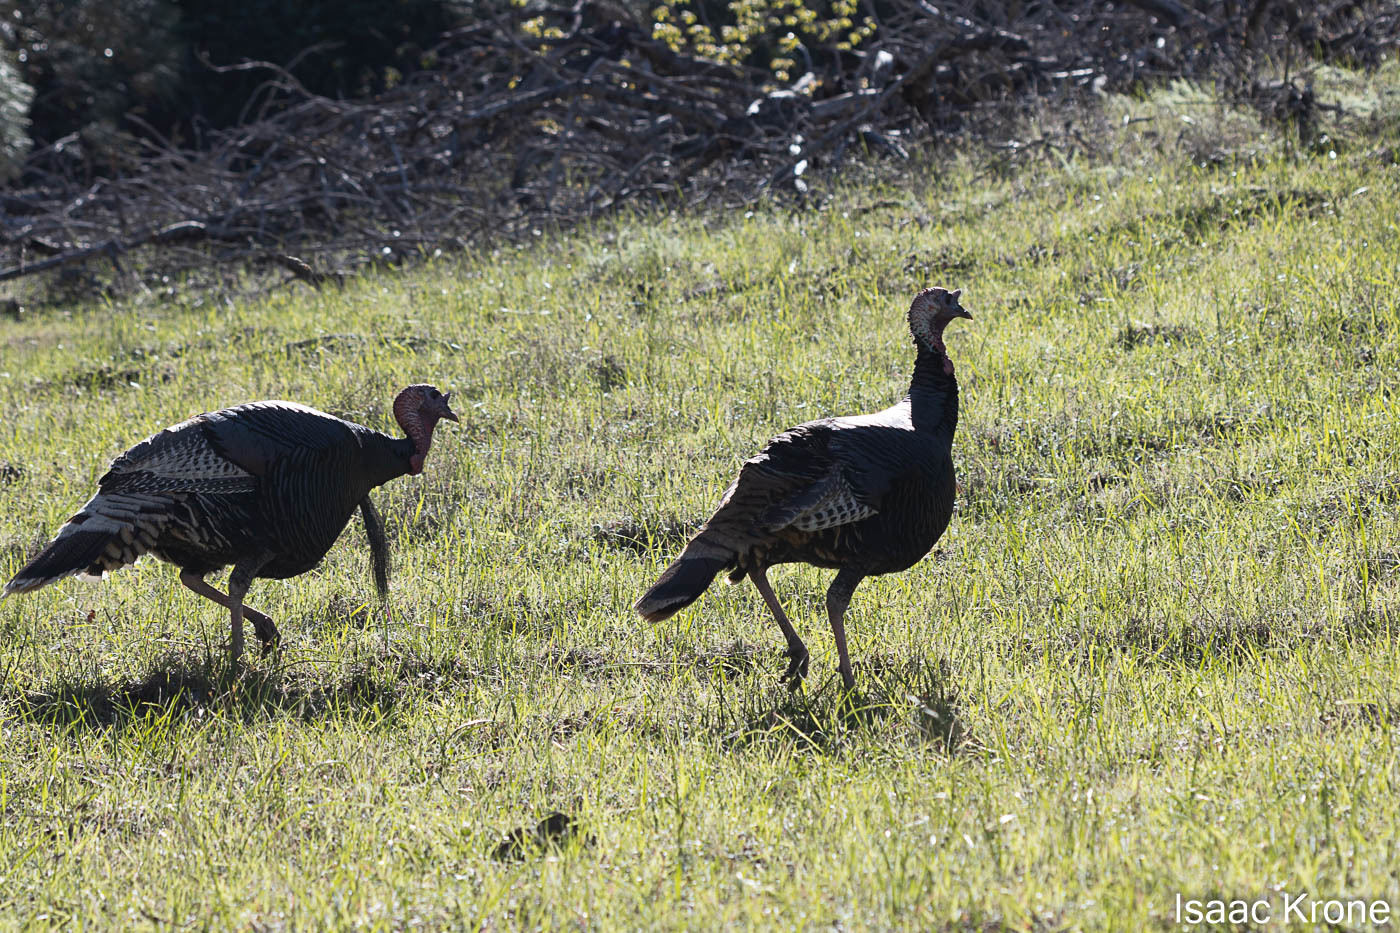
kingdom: Animalia
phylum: Chordata
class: Aves
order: Galliformes
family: Phasianidae
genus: Meleagris
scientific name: Meleagris gallopavo
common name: Wild turkey
